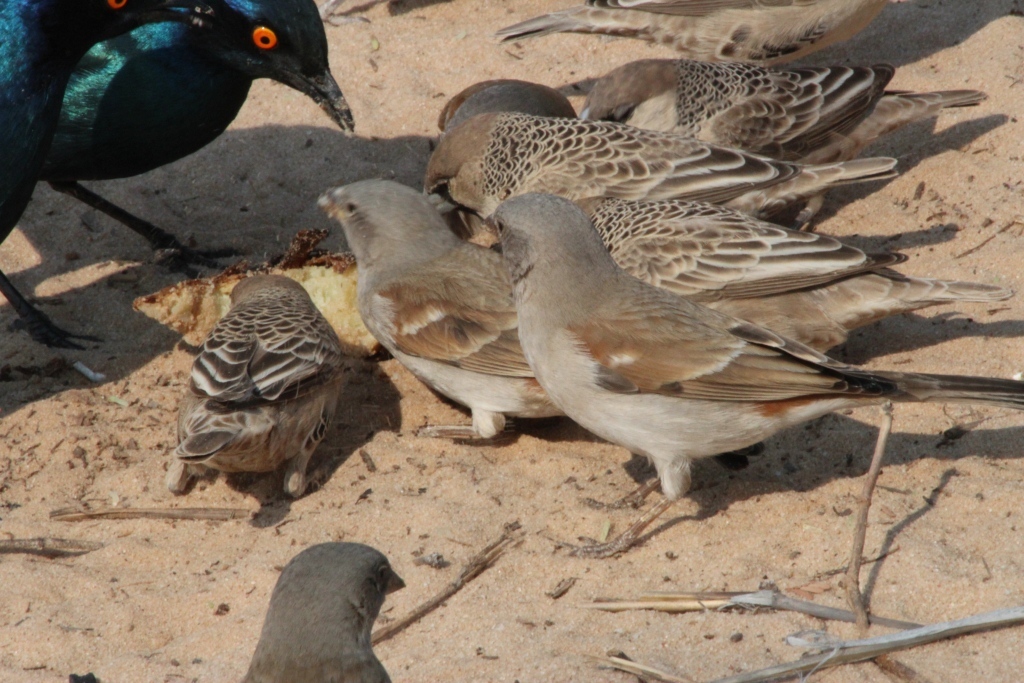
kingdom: Animalia
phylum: Chordata
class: Aves
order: Passeriformes
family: Passeridae
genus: Passer
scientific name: Passer diffusus
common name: Southern grey-headed sparrow
